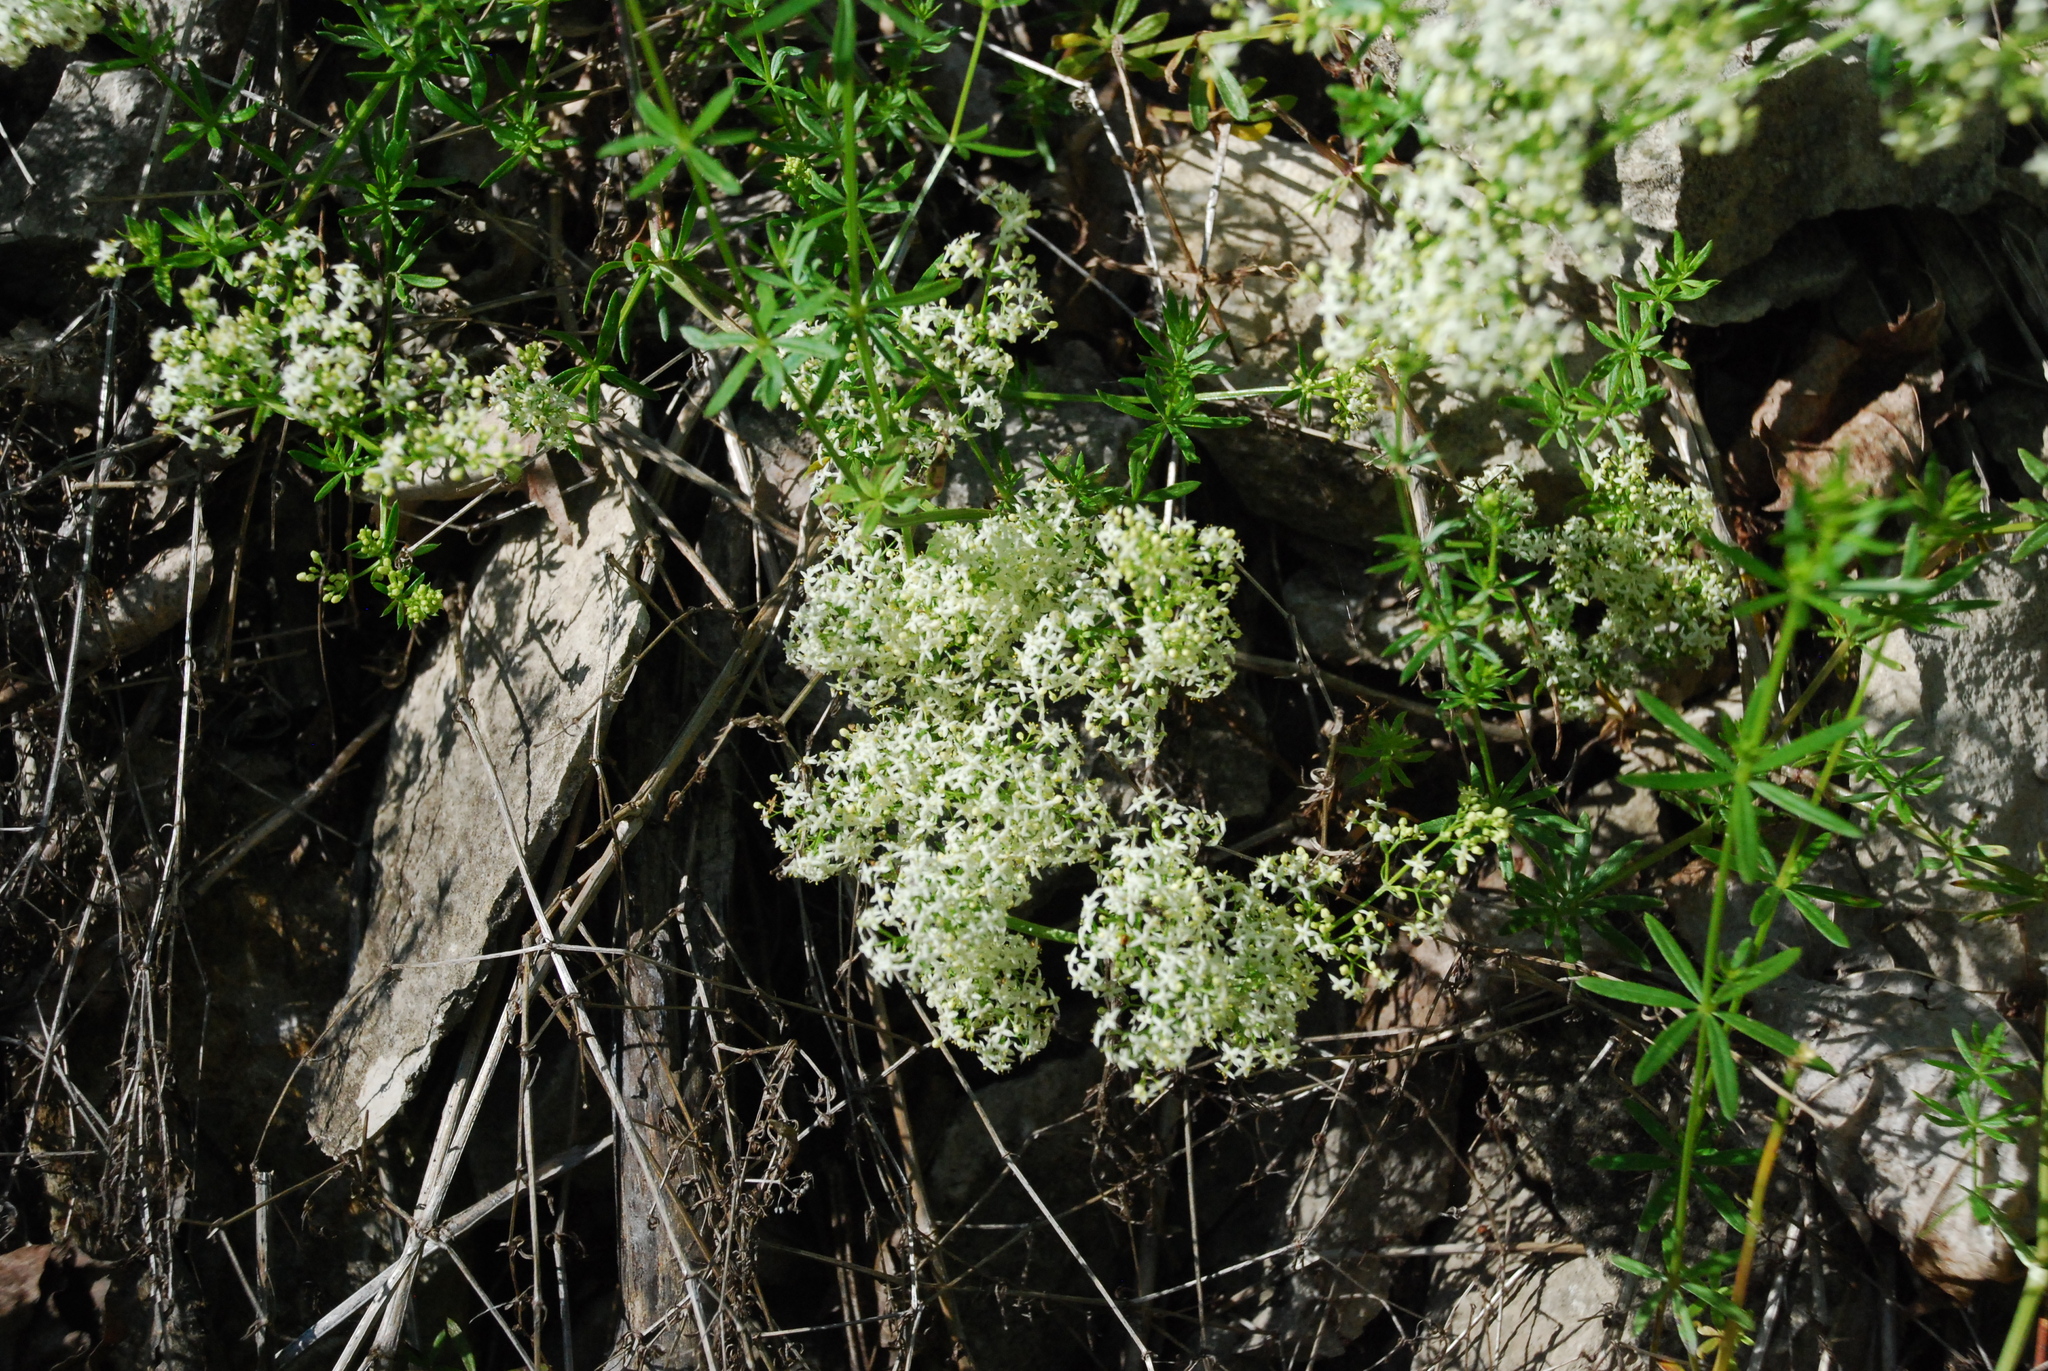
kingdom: Plantae
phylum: Tracheophyta
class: Magnoliopsida
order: Gentianales
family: Rubiaceae
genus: Galium
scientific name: Galium mollugo
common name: Hedge bedstraw
